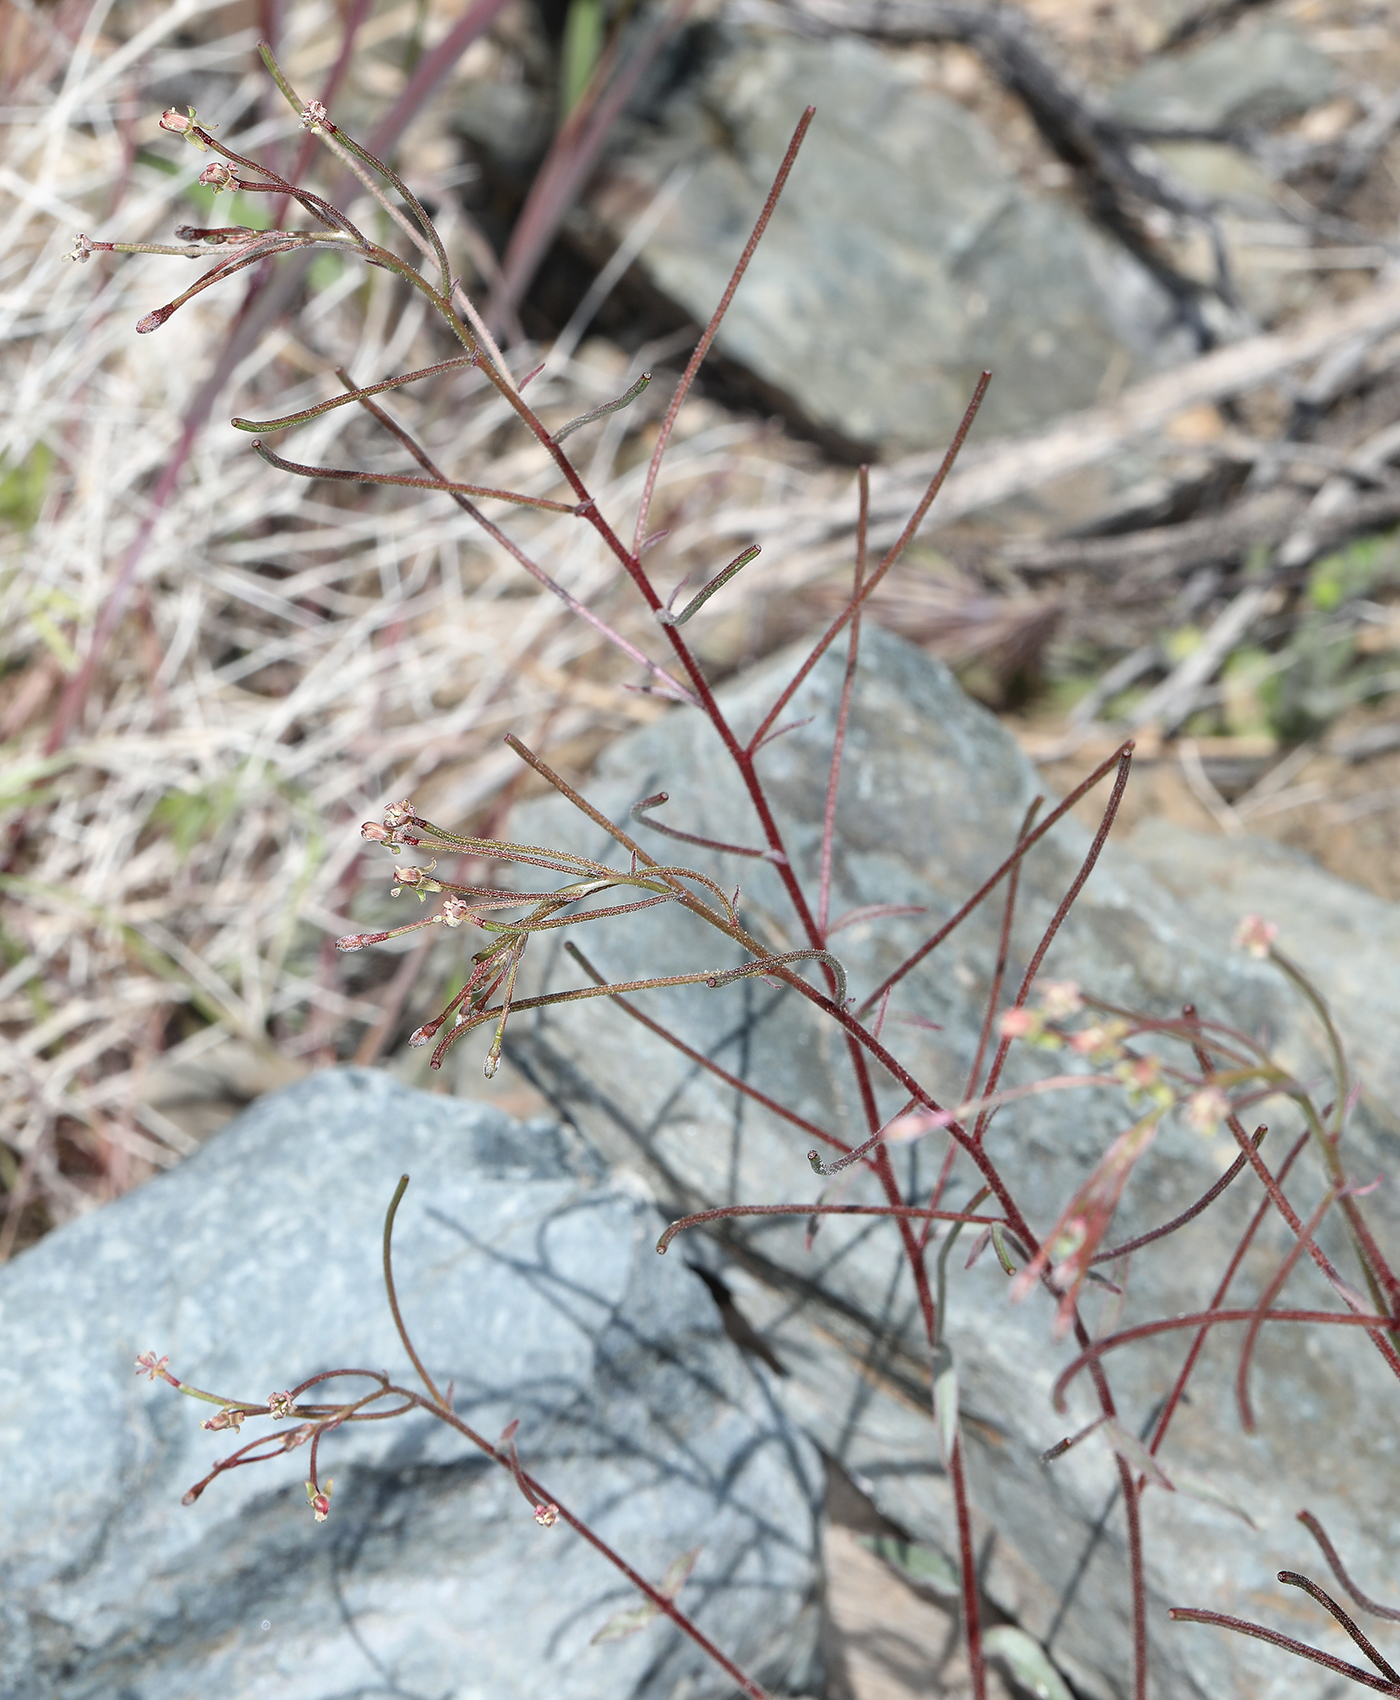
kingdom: Plantae
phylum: Tracheophyta
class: Magnoliopsida
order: Boraginales
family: Hydrophyllaceae
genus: Eucrypta
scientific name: Eucrypta chrysanthemifolia
